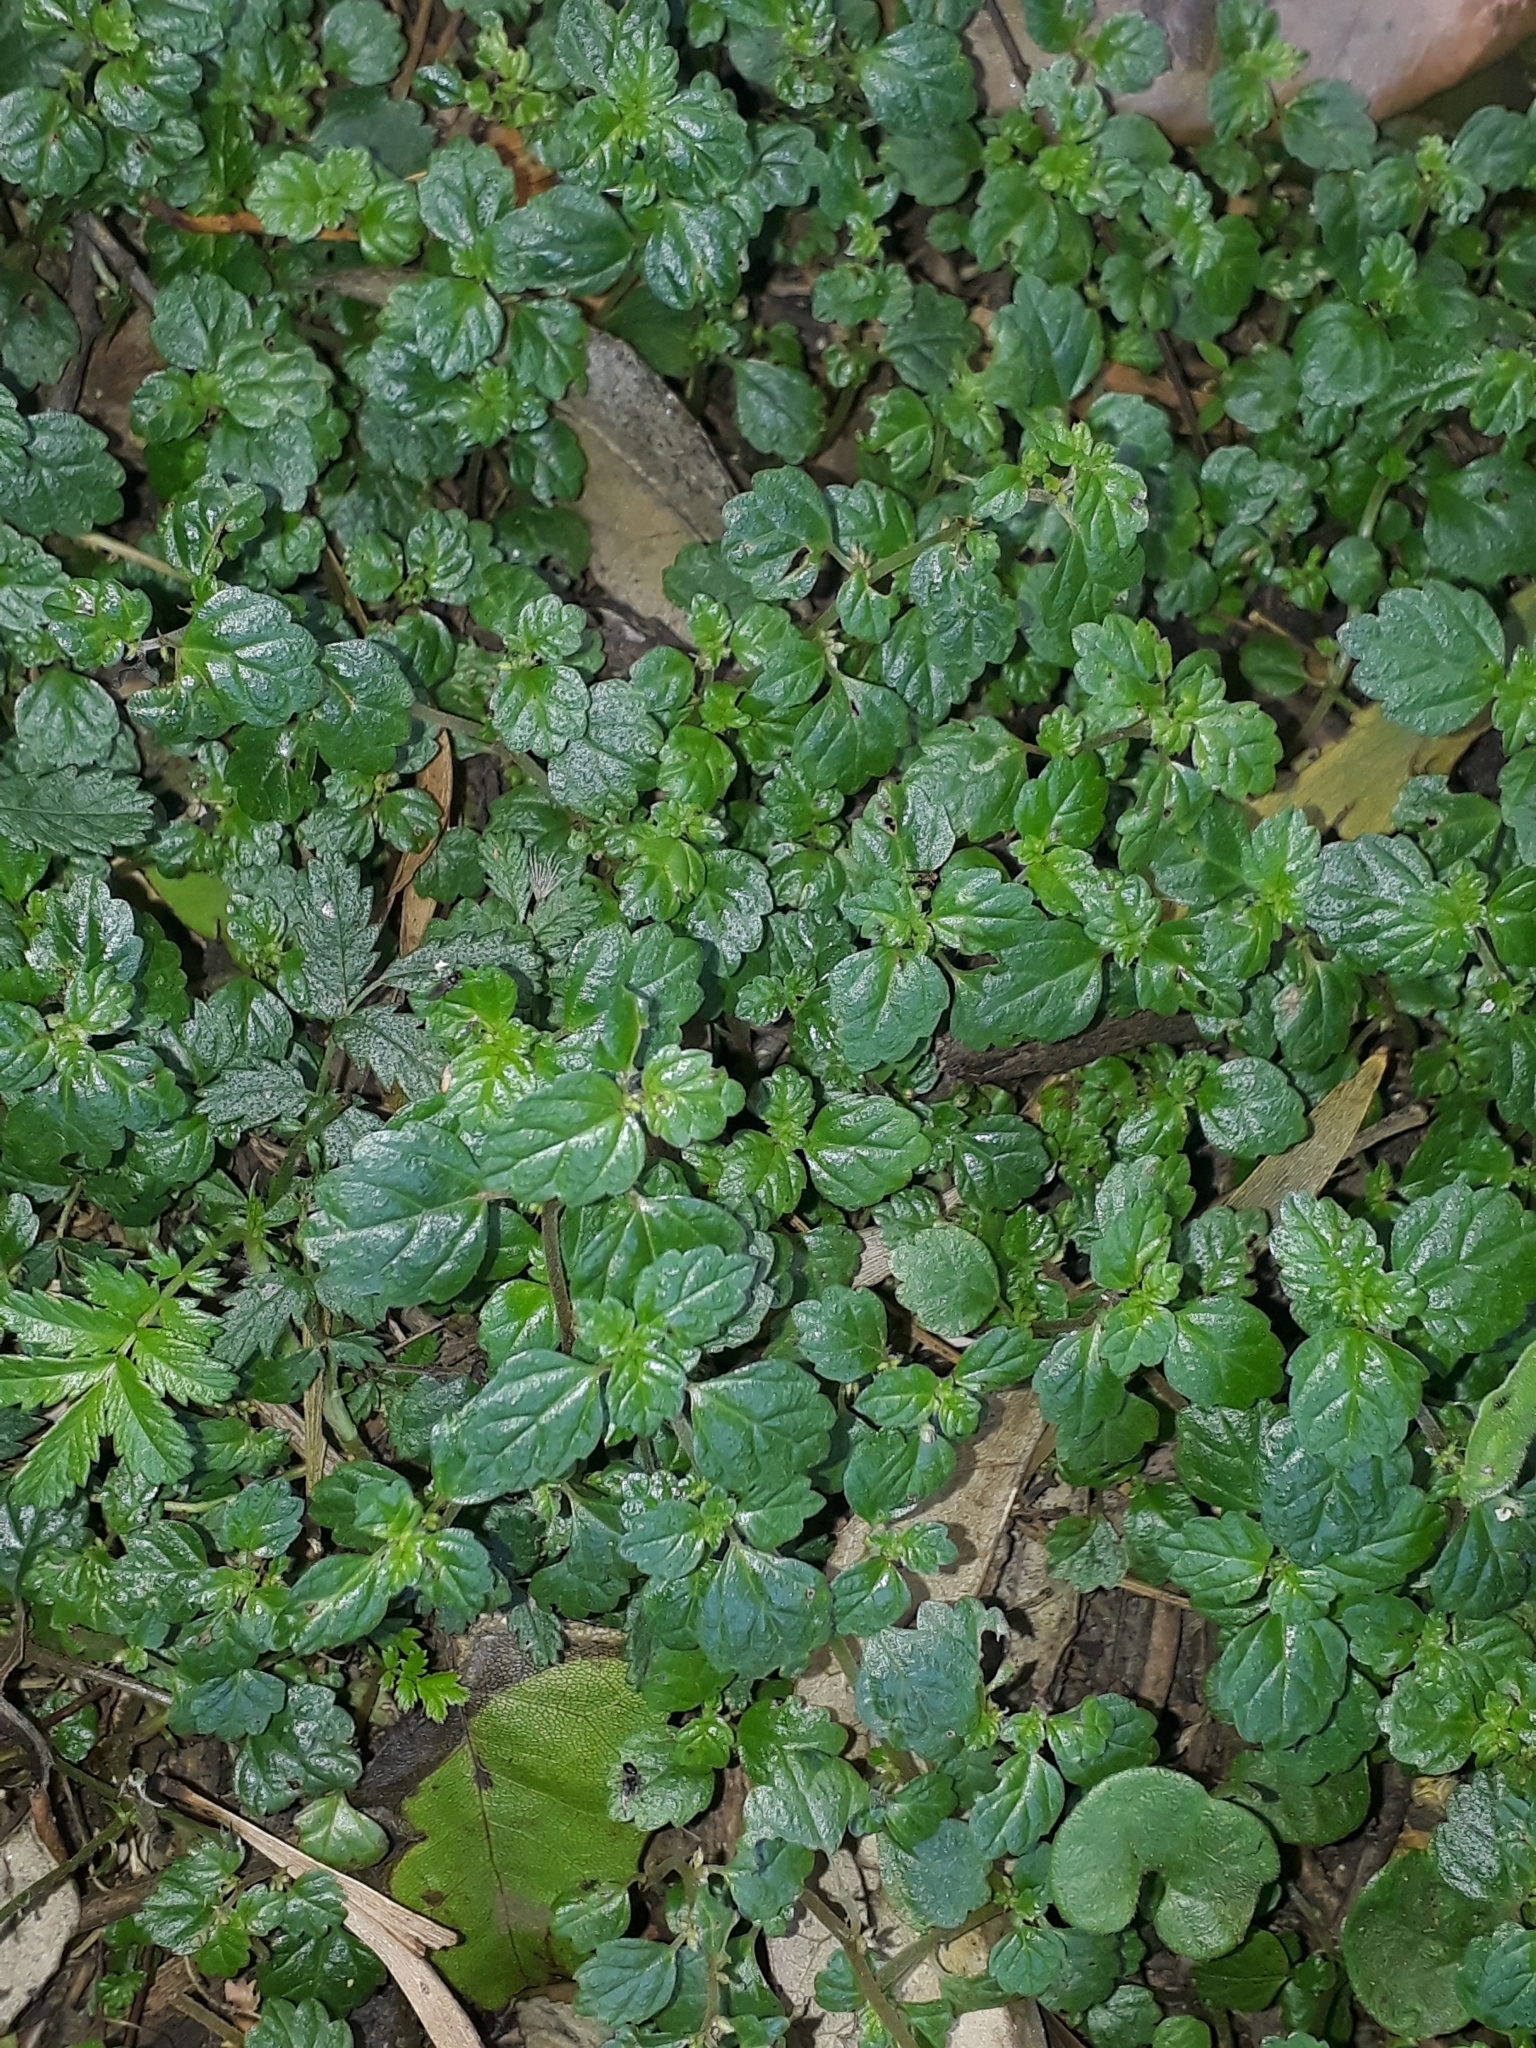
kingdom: Plantae
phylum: Tracheophyta
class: Magnoliopsida
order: Rosales
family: Urticaceae
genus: Australina
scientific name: Australina pusilla
